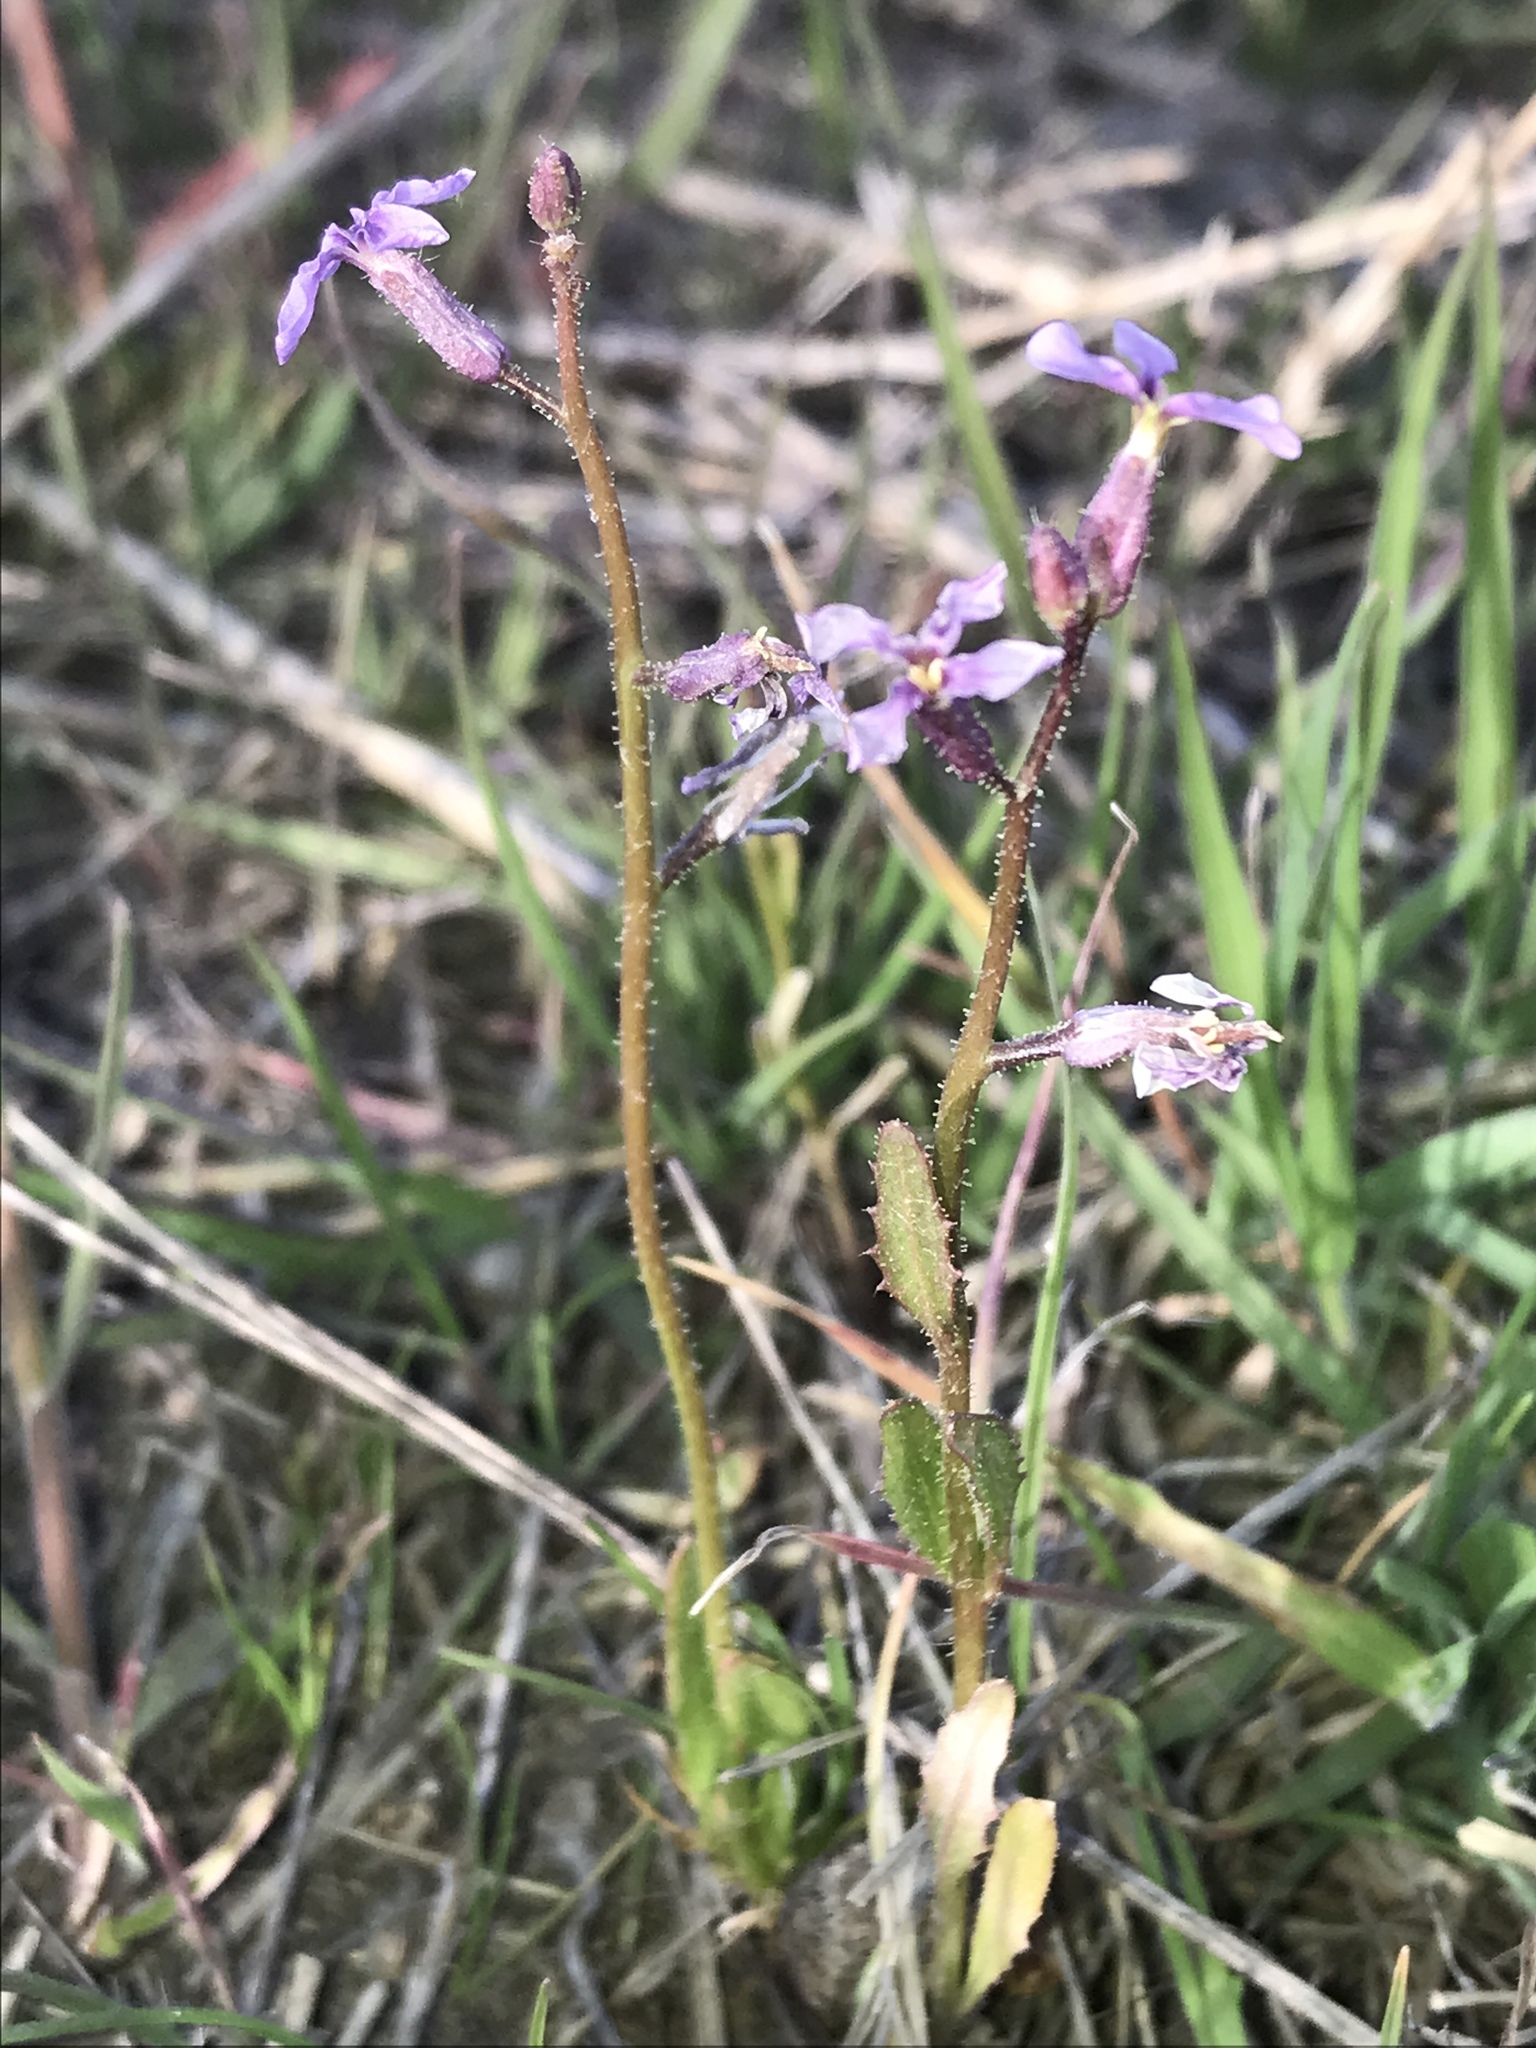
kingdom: Plantae
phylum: Tracheophyta
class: Magnoliopsida
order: Brassicales
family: Brassicaceae
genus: Chorispora
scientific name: Chorispora tenella
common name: Crossflower
